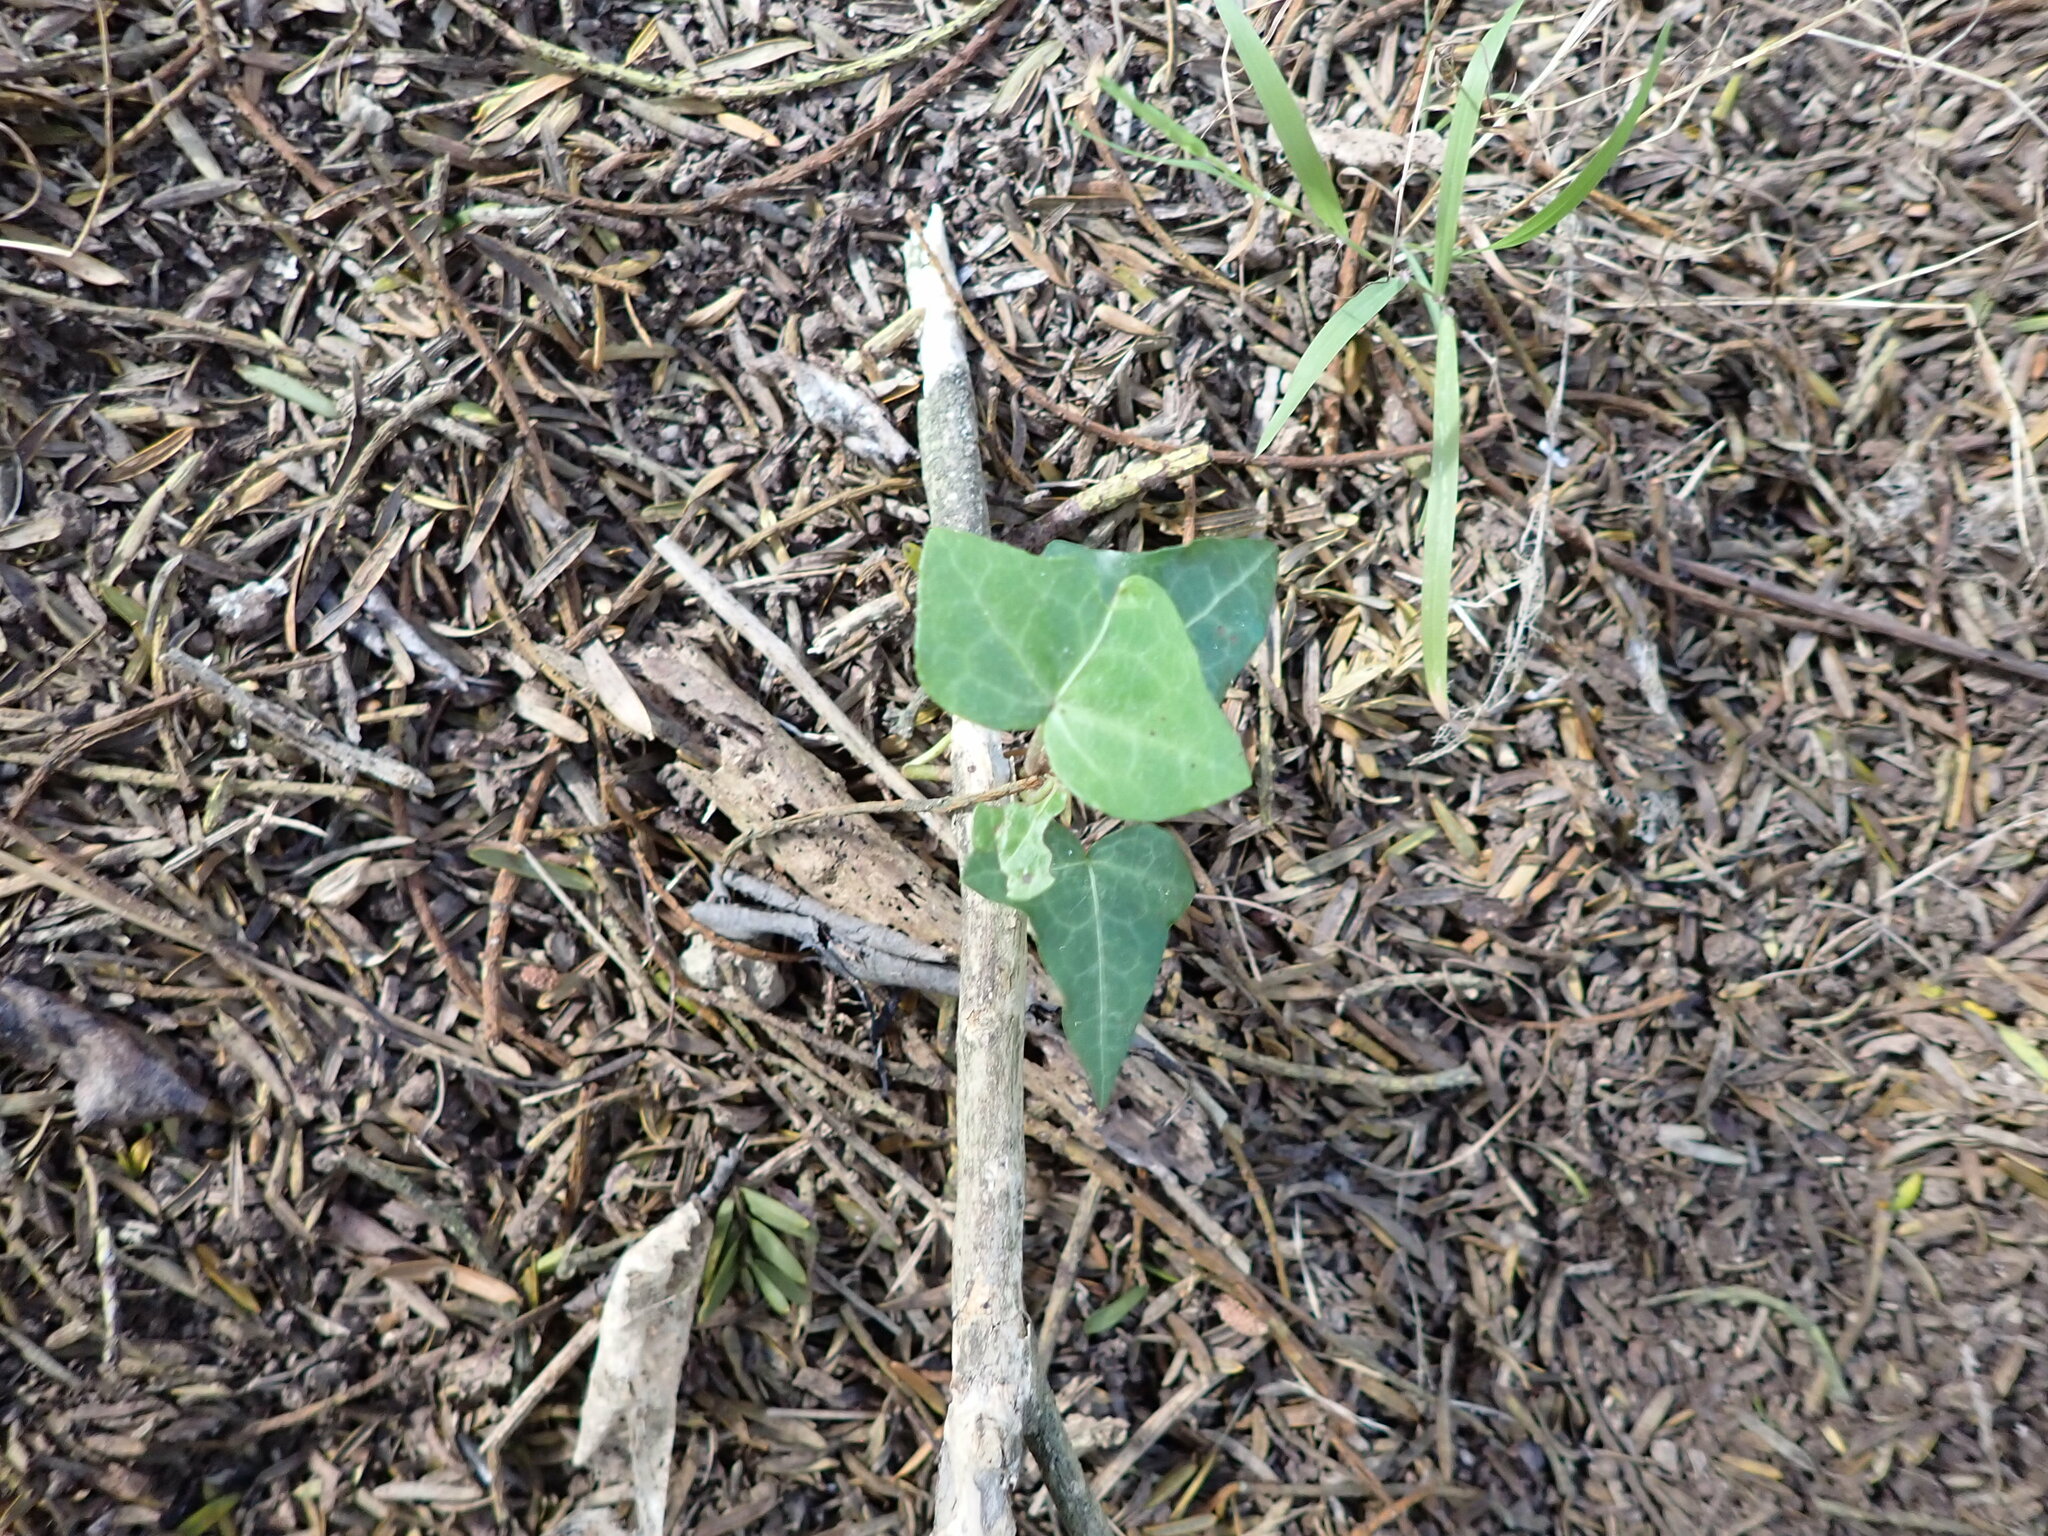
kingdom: Plantae
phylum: Tracheophyta
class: Magnoliopsida
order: Apiales
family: Araliaceae
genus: Hedera
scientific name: Hedera helix
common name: Ivy
